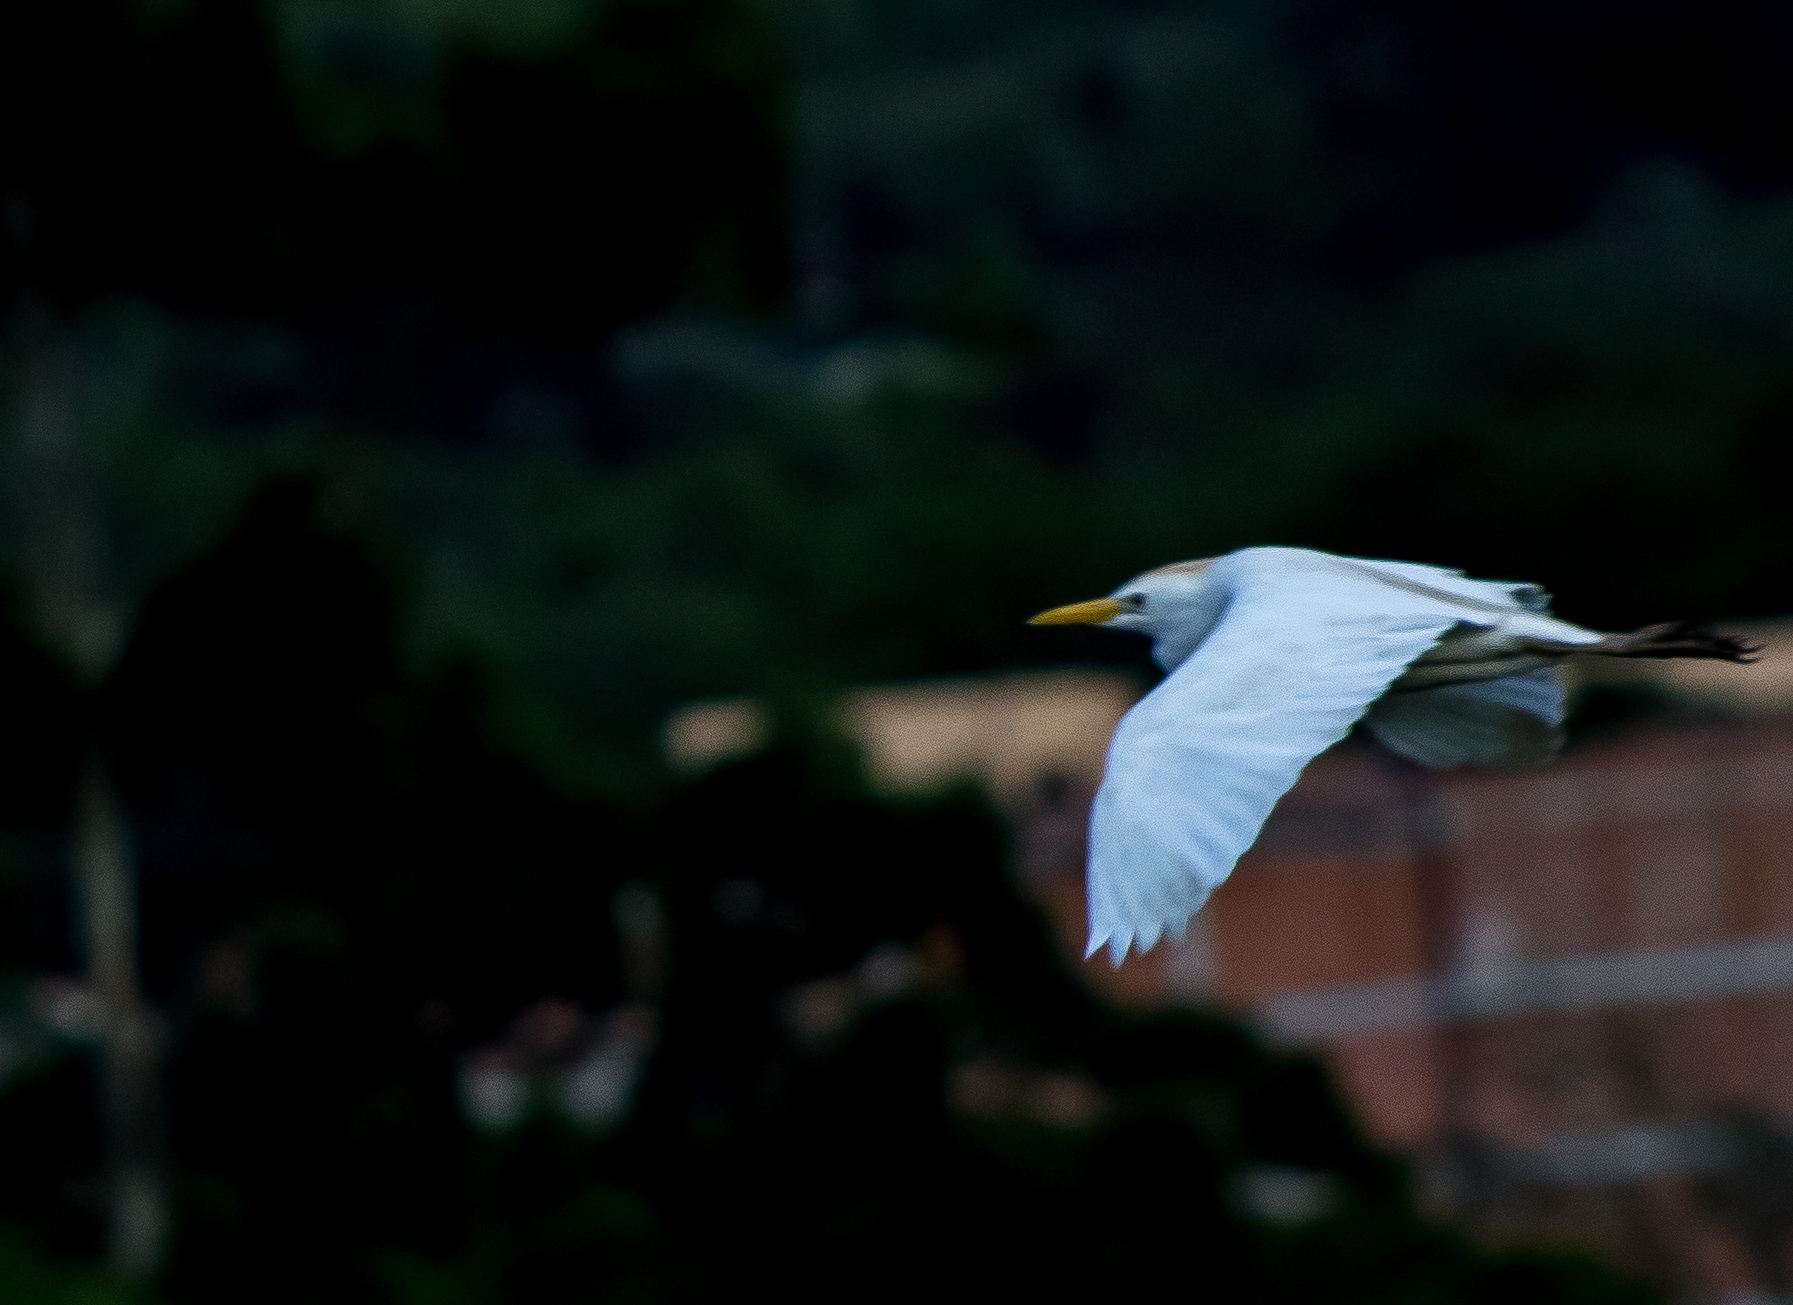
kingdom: Animalia
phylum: Chordata
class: Aves
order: Pelecaniformes
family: Ardeidae
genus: Bubulcus
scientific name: Bubulcus ibis
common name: Cattle egret
